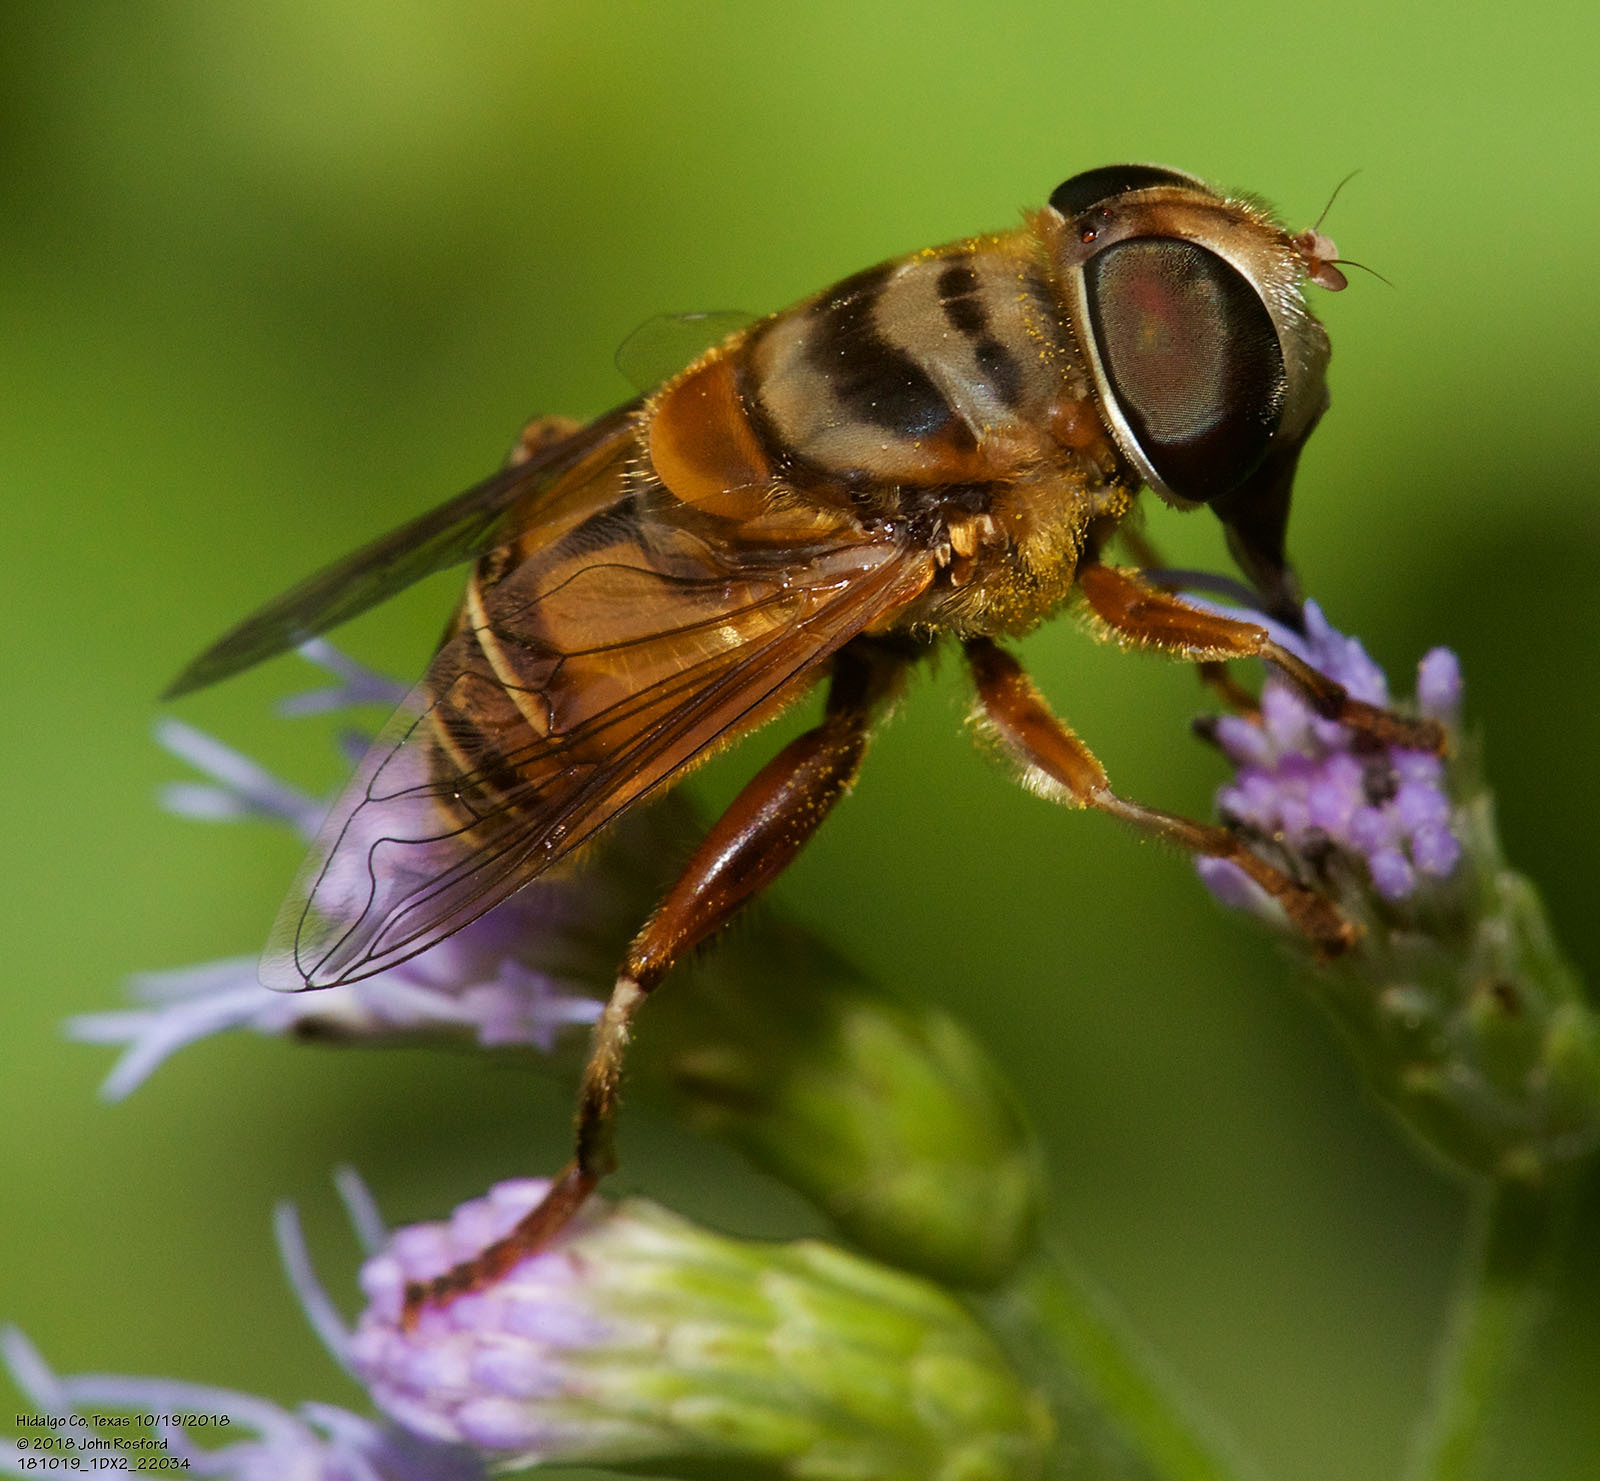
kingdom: Animalia
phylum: Arthropoda
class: Insecta
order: Diptera
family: Syrphidae
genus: Palpada
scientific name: Palpada vinetorum
